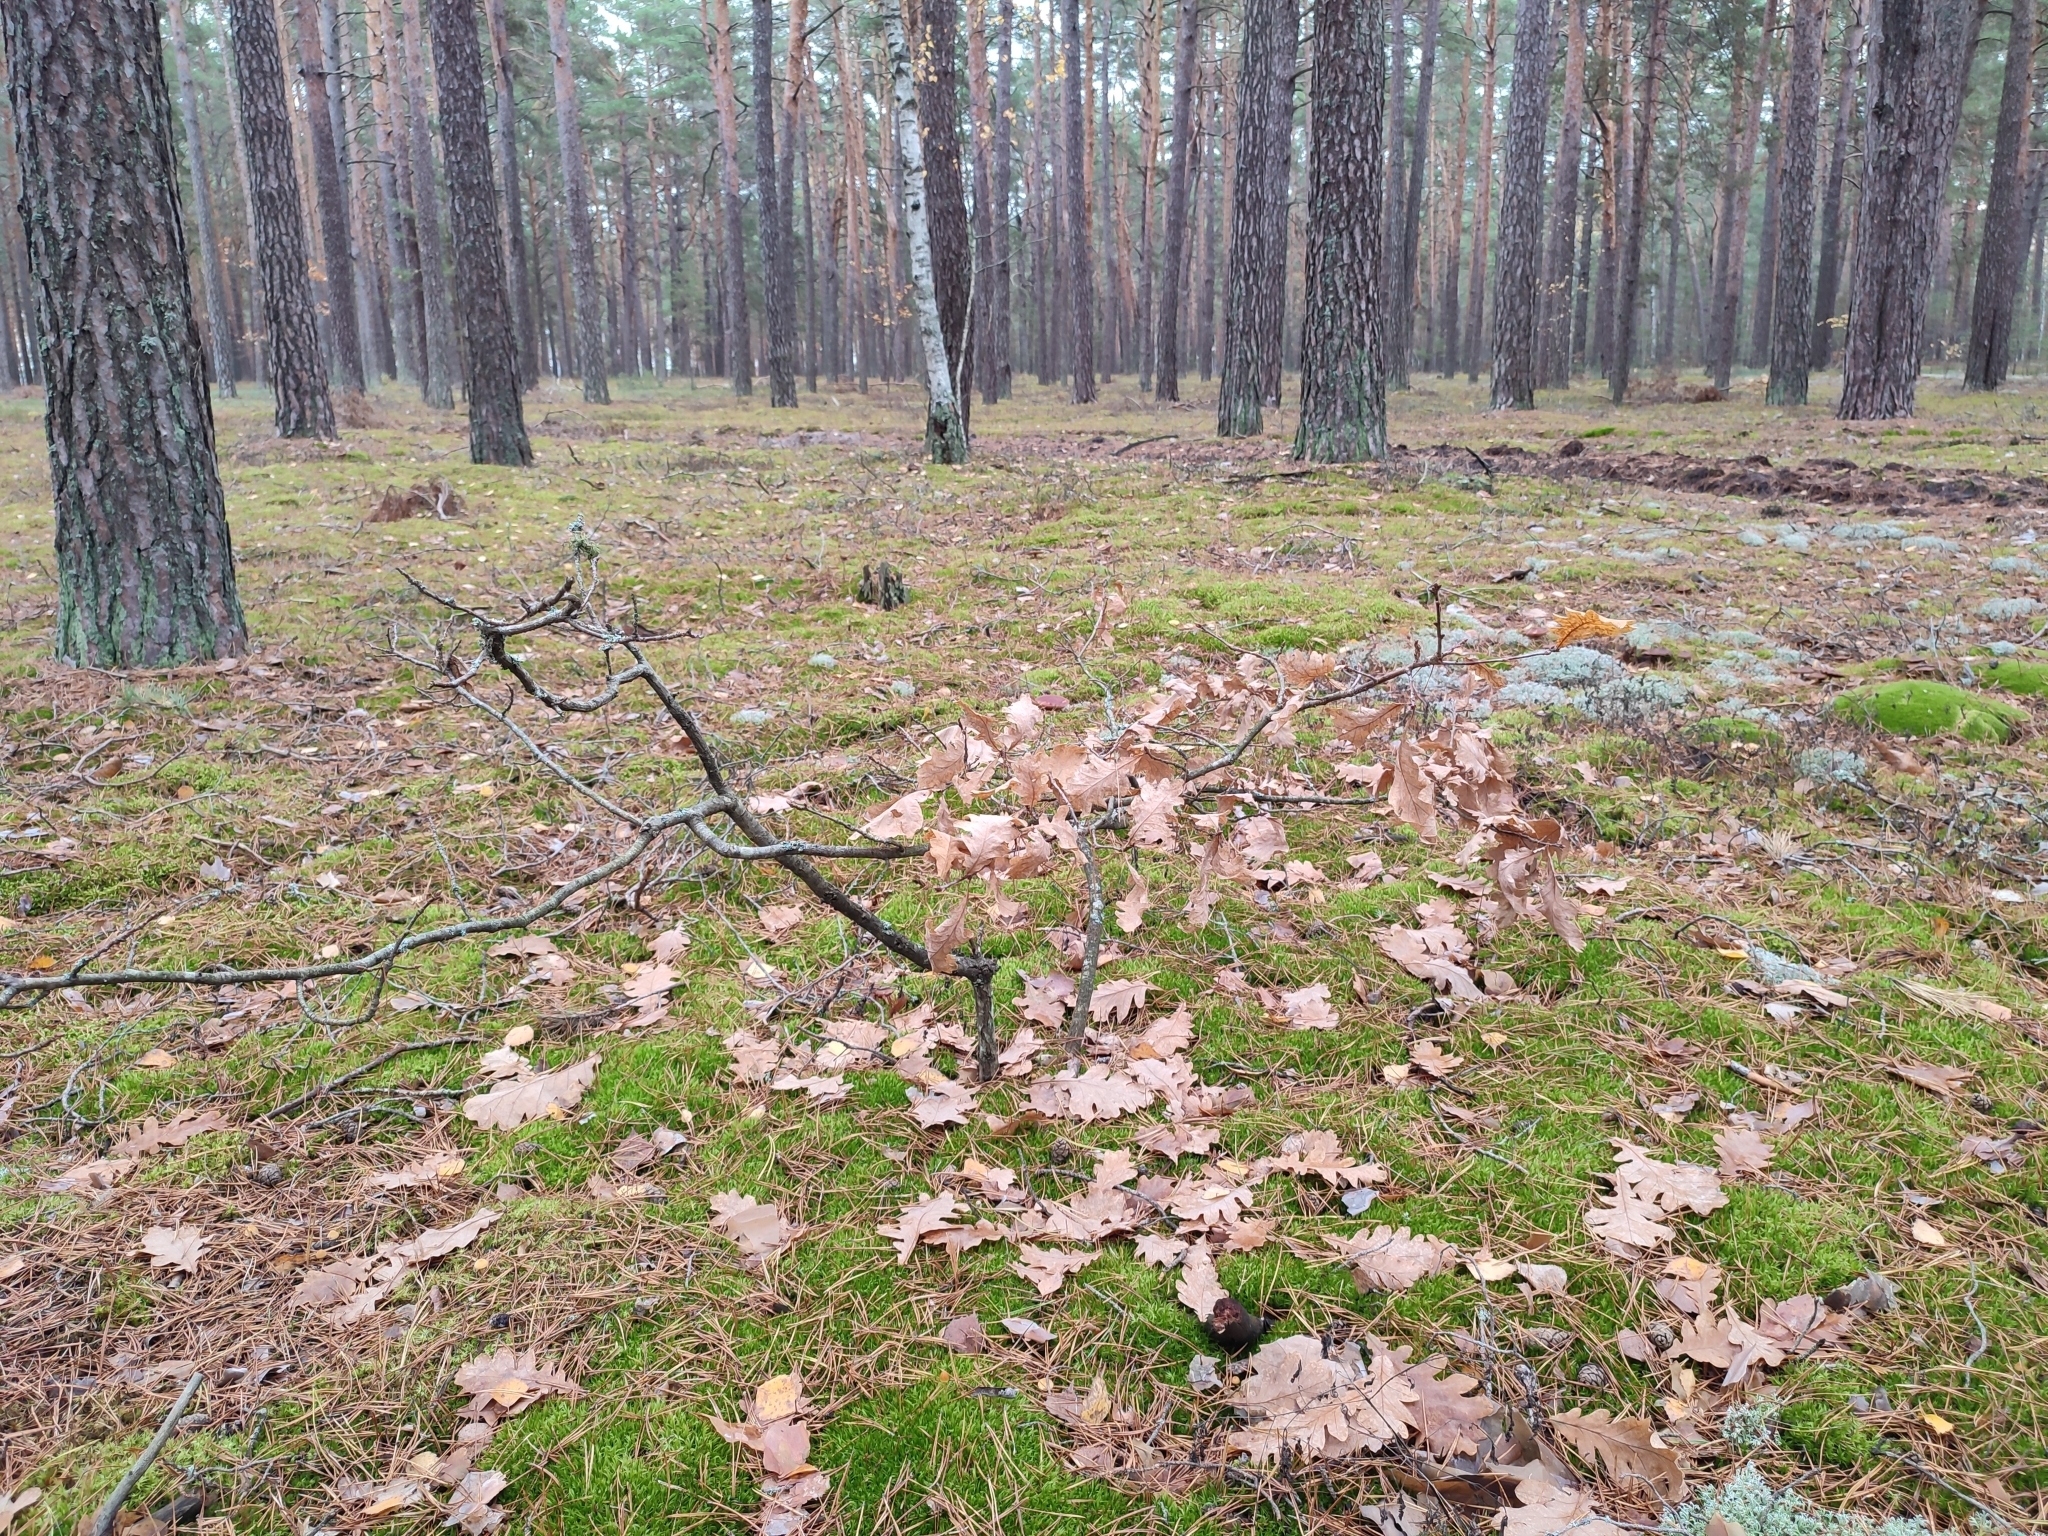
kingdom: Plantae
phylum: Tracheophyta
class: Magnoliopsida
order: Fagales
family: Fagaceae
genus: Quercus
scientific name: Quercus robur
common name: Pedunculate oak
